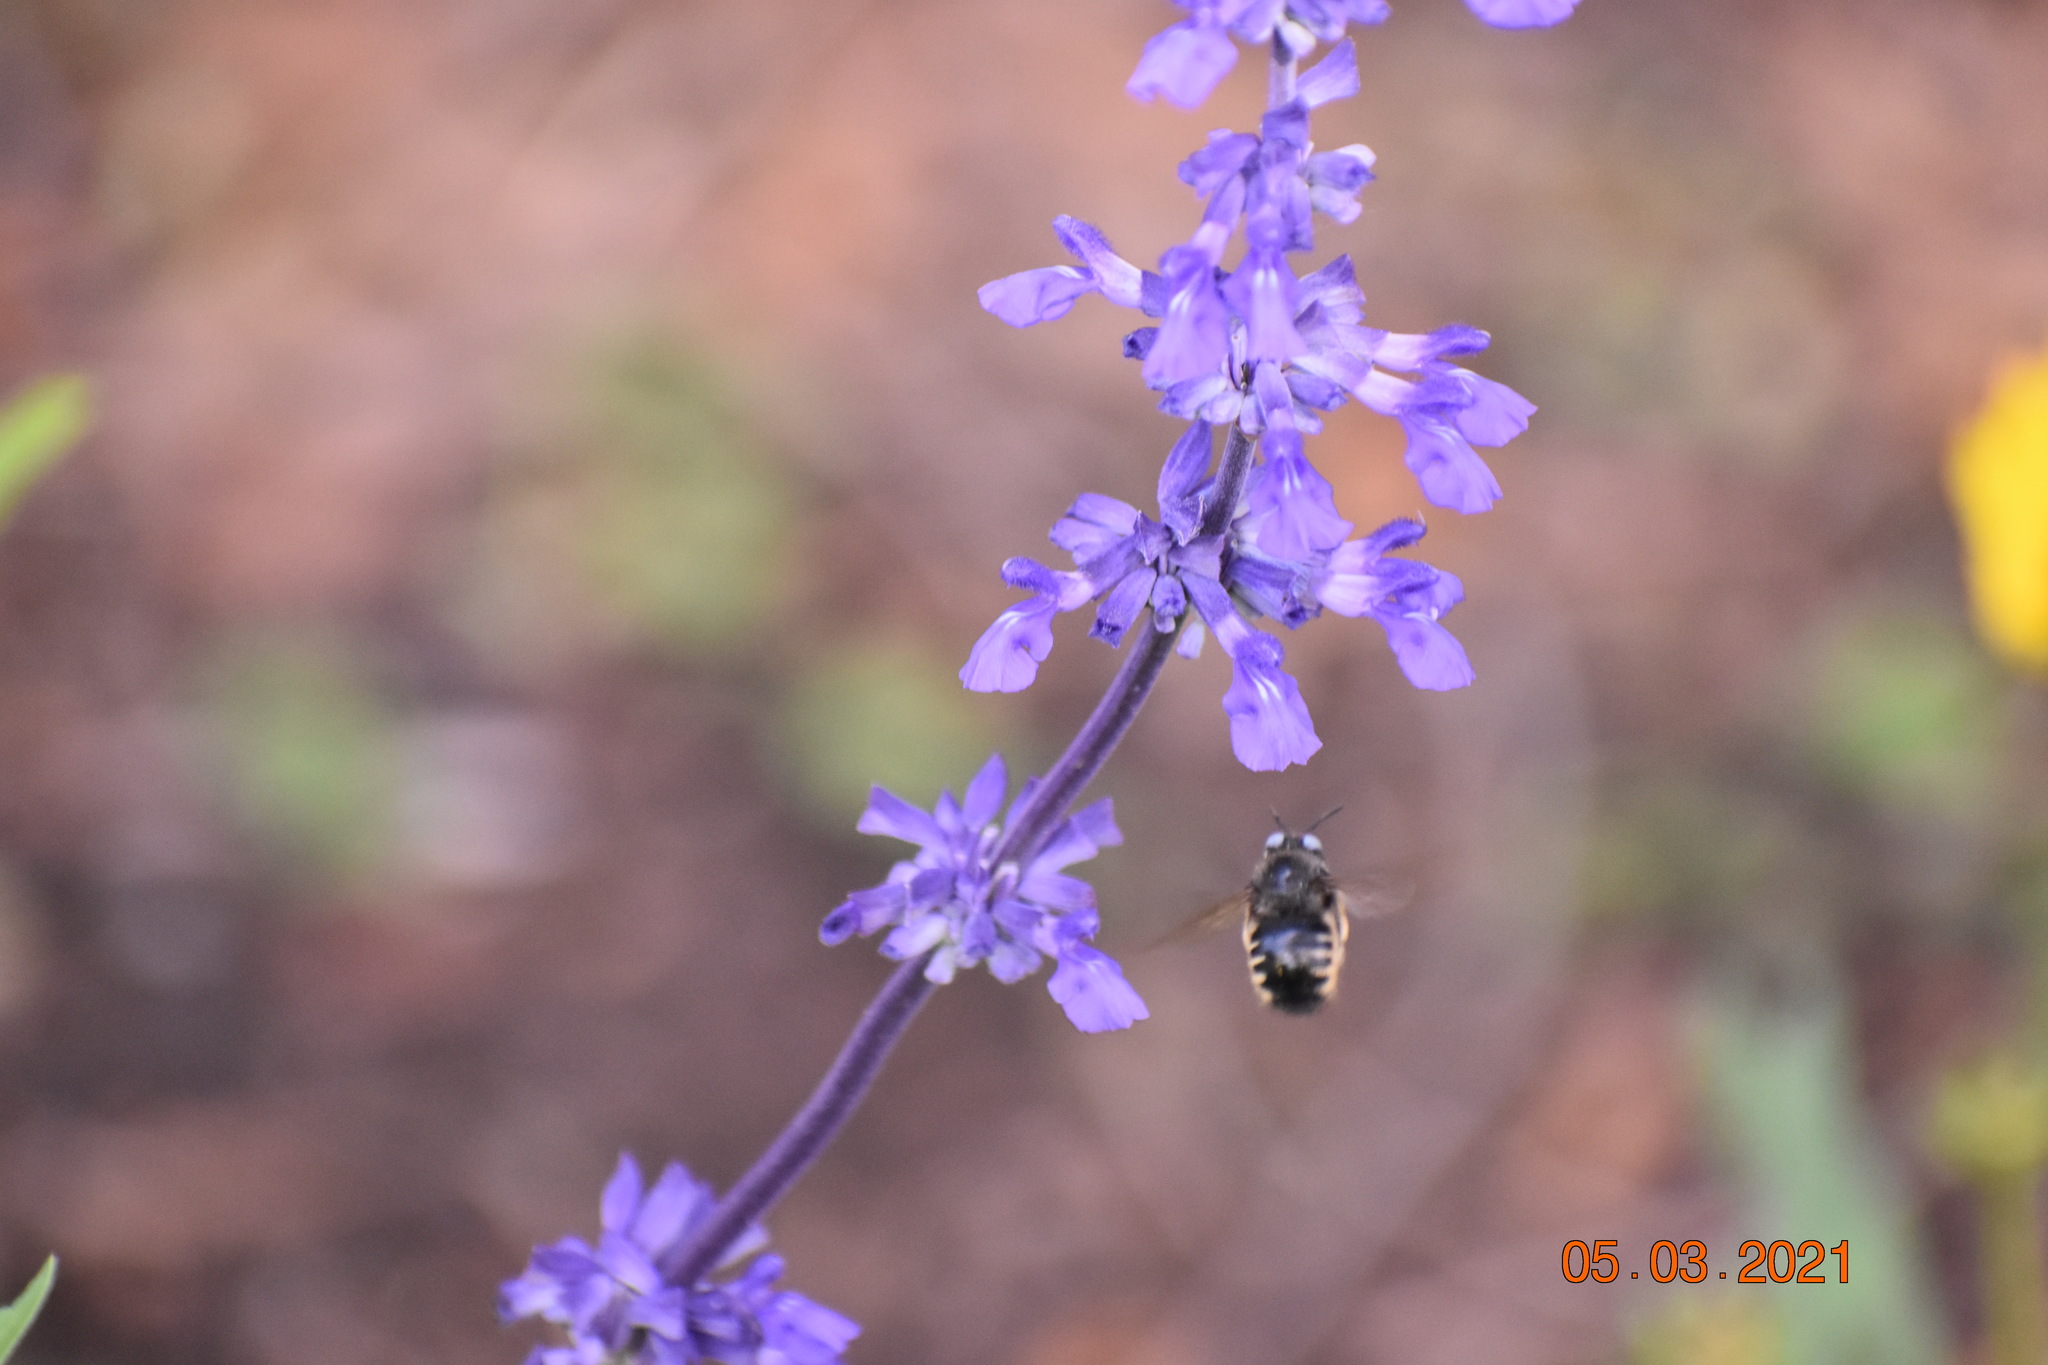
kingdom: Animalia
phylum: Arthropoda
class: Insecta
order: Hymenoptera
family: Apidae
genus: Xylocopa
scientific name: Xylocopa tabaniformis
